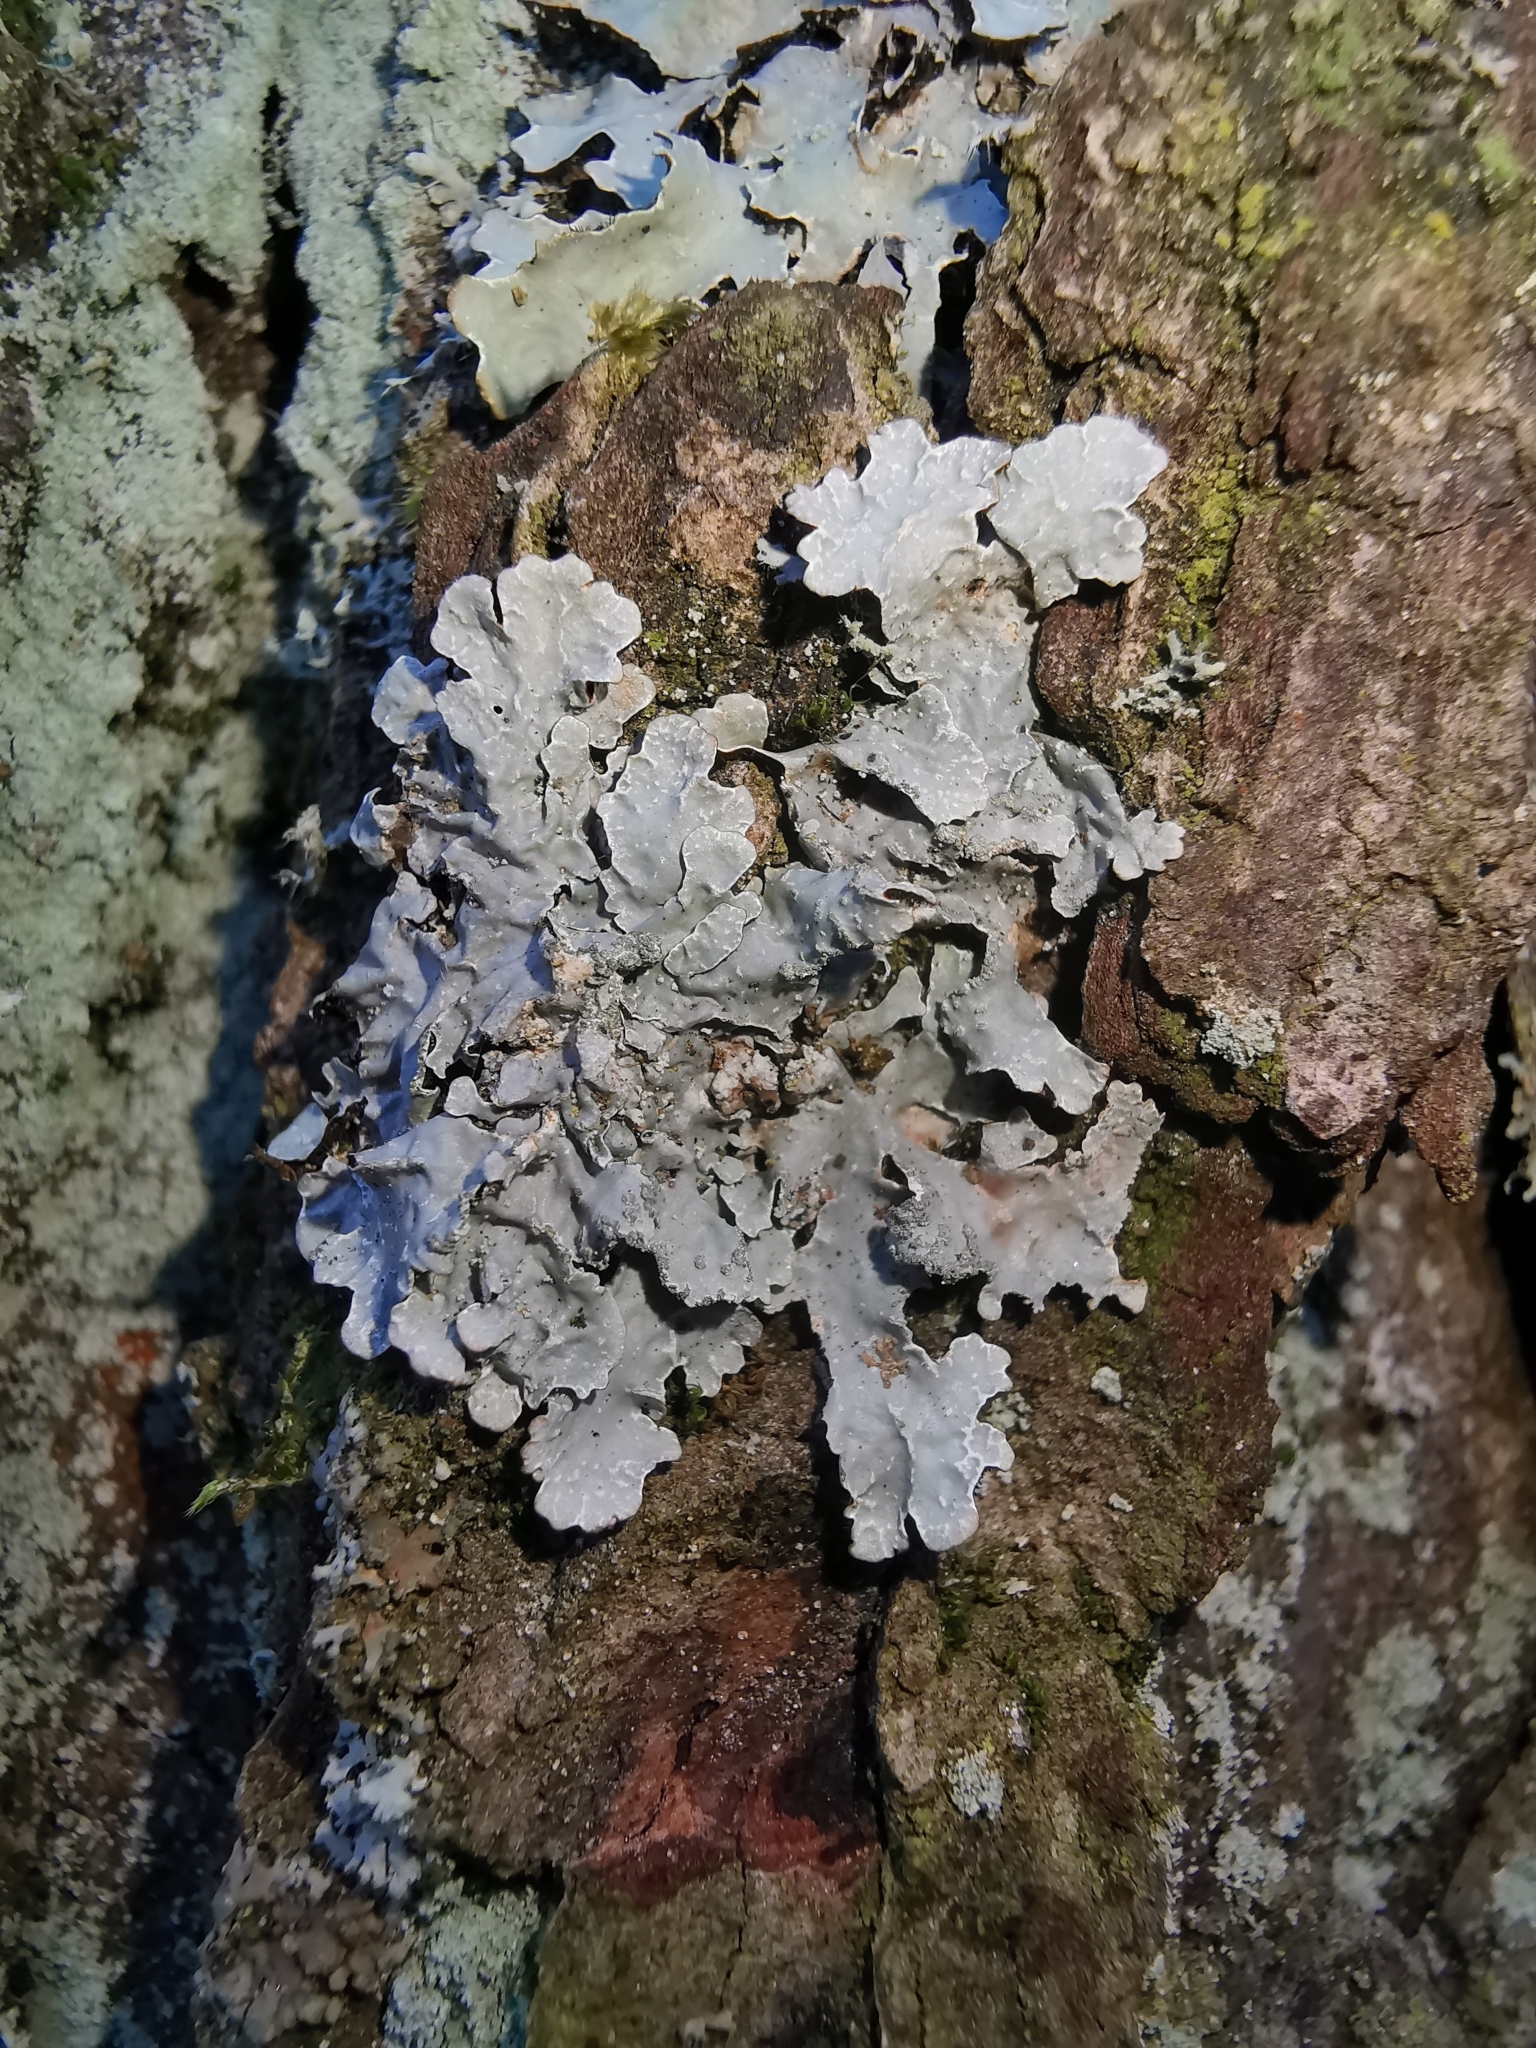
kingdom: Fungi
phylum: Ascomycota
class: Lecanoromycetes
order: Lecanorales
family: Parmeliaceae
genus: Parmelia
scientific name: Parmelia sulcata
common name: Netted shield lichen
